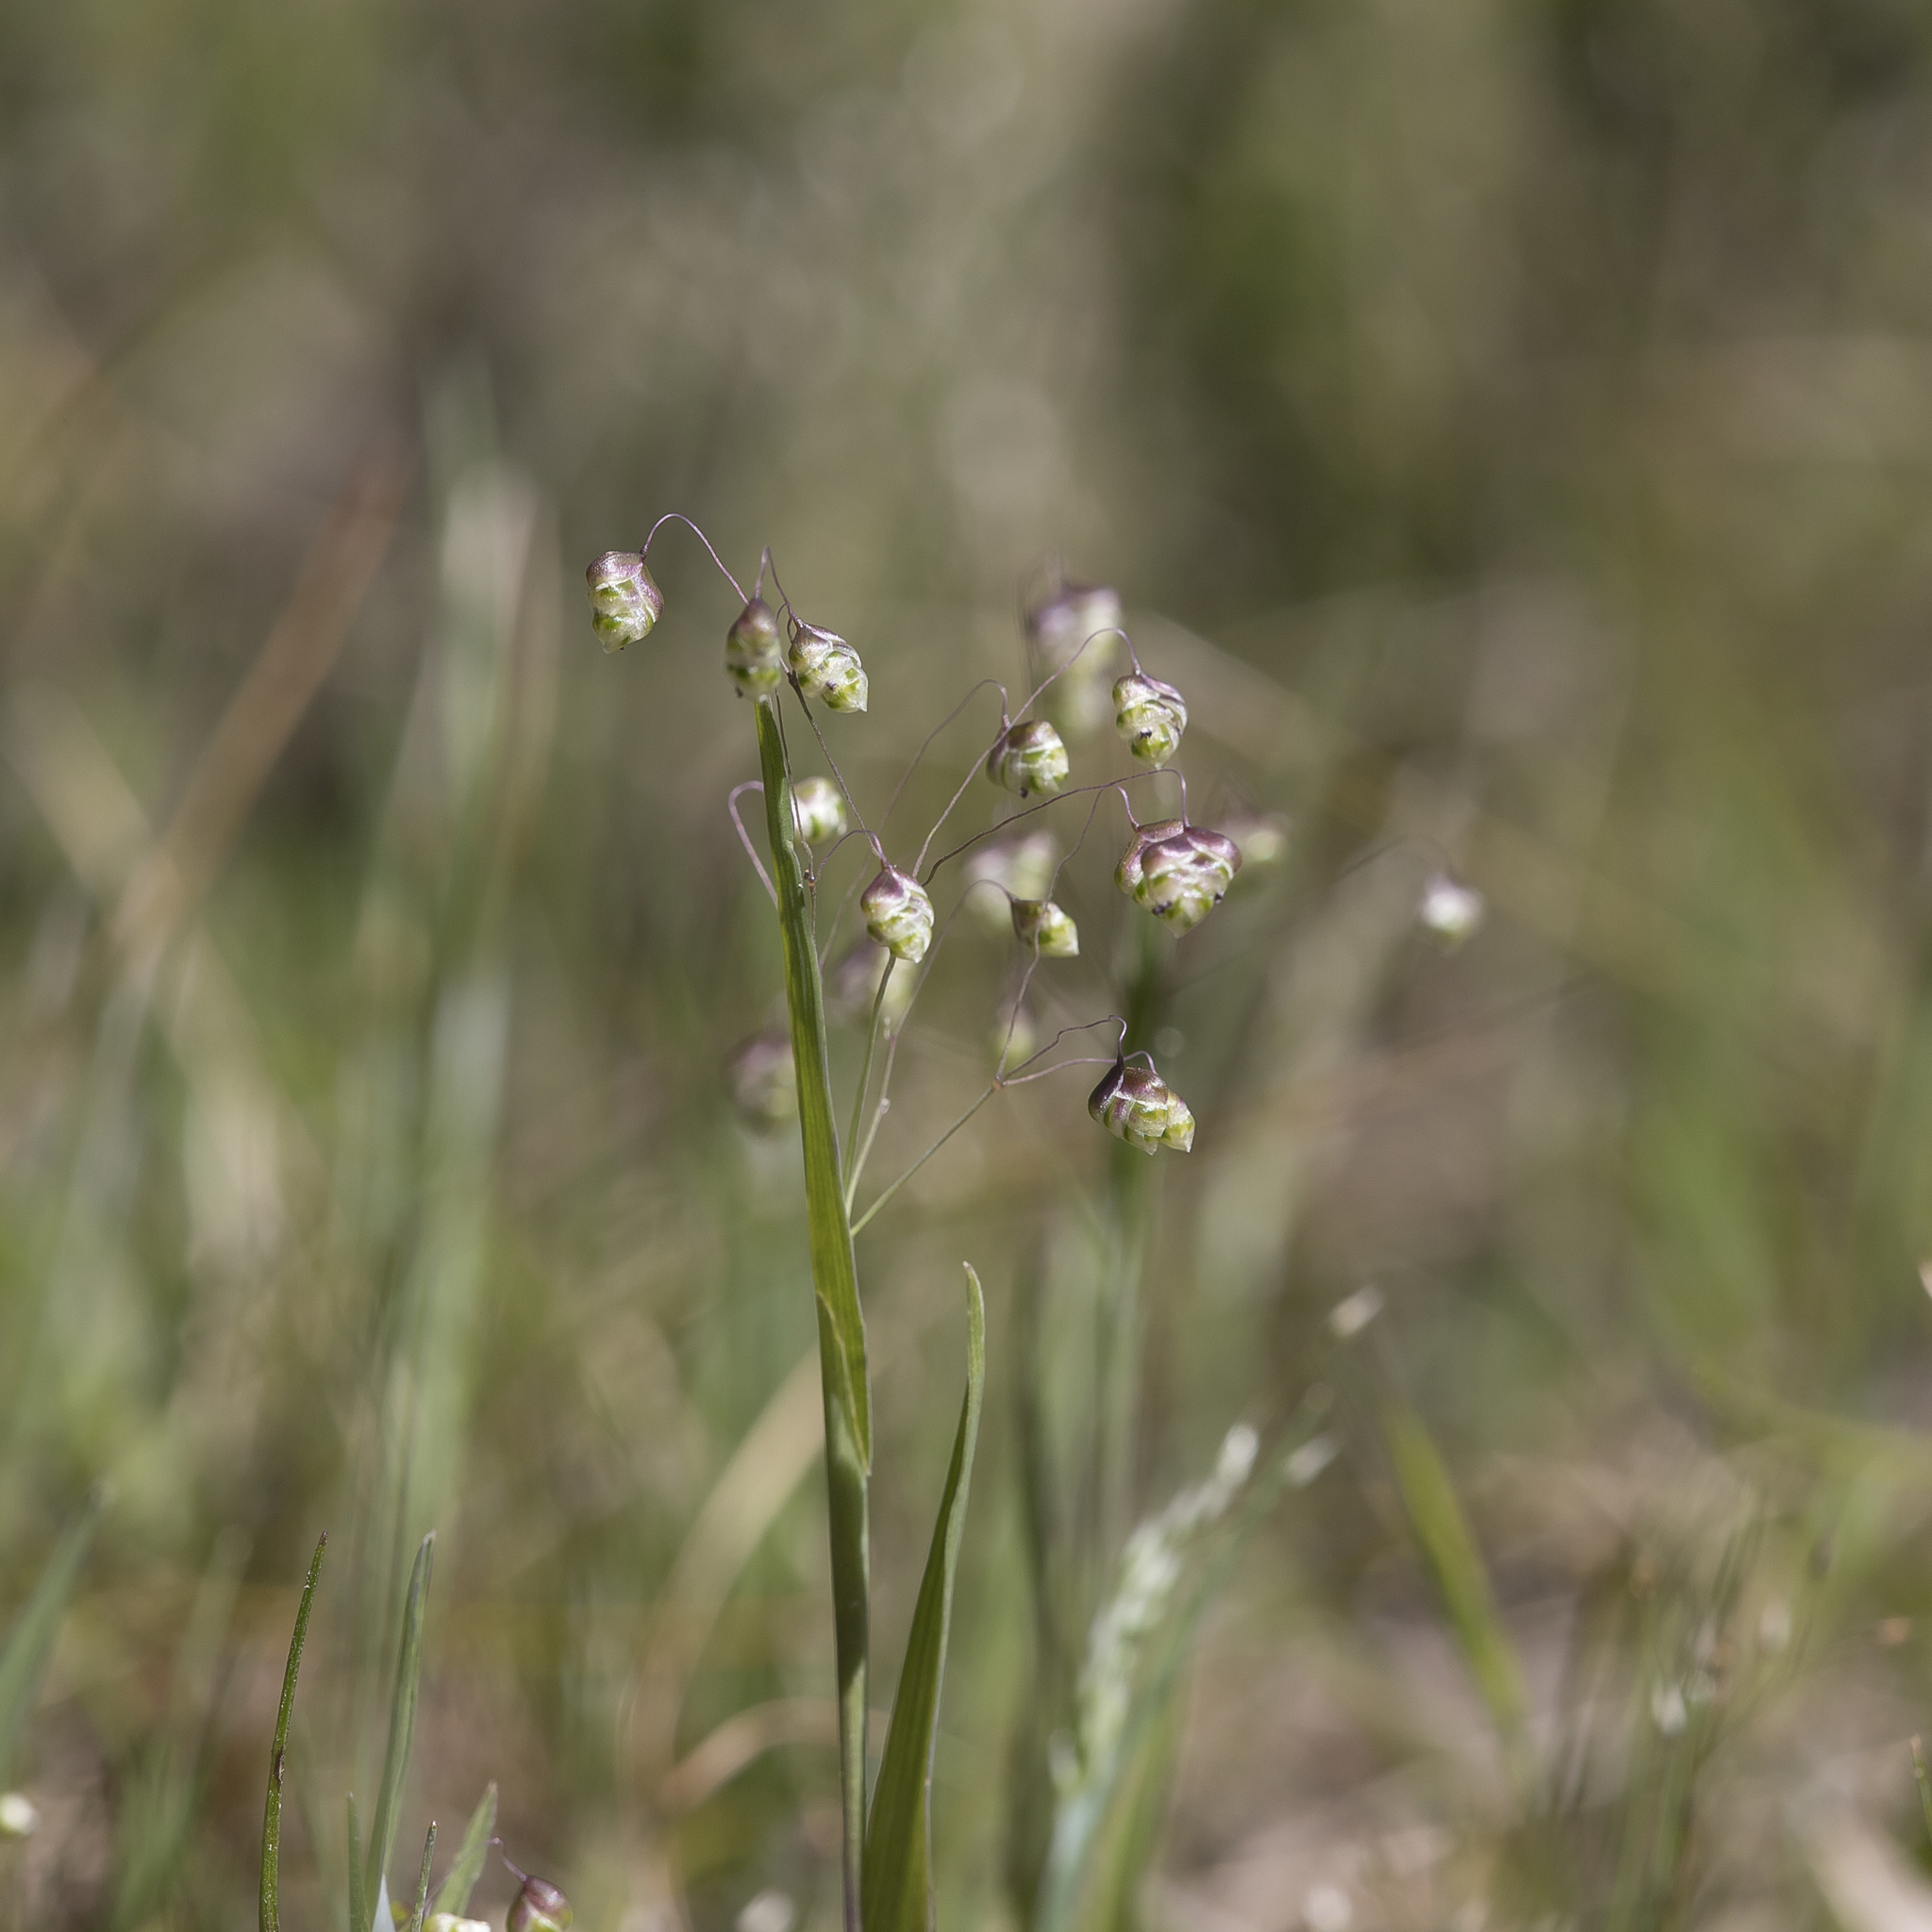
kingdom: Plantae
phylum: Tracheophyta
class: Liliopsida
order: Poales
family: Poaceae
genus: Briza
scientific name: Briza minor
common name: Lesser quaking-grass
